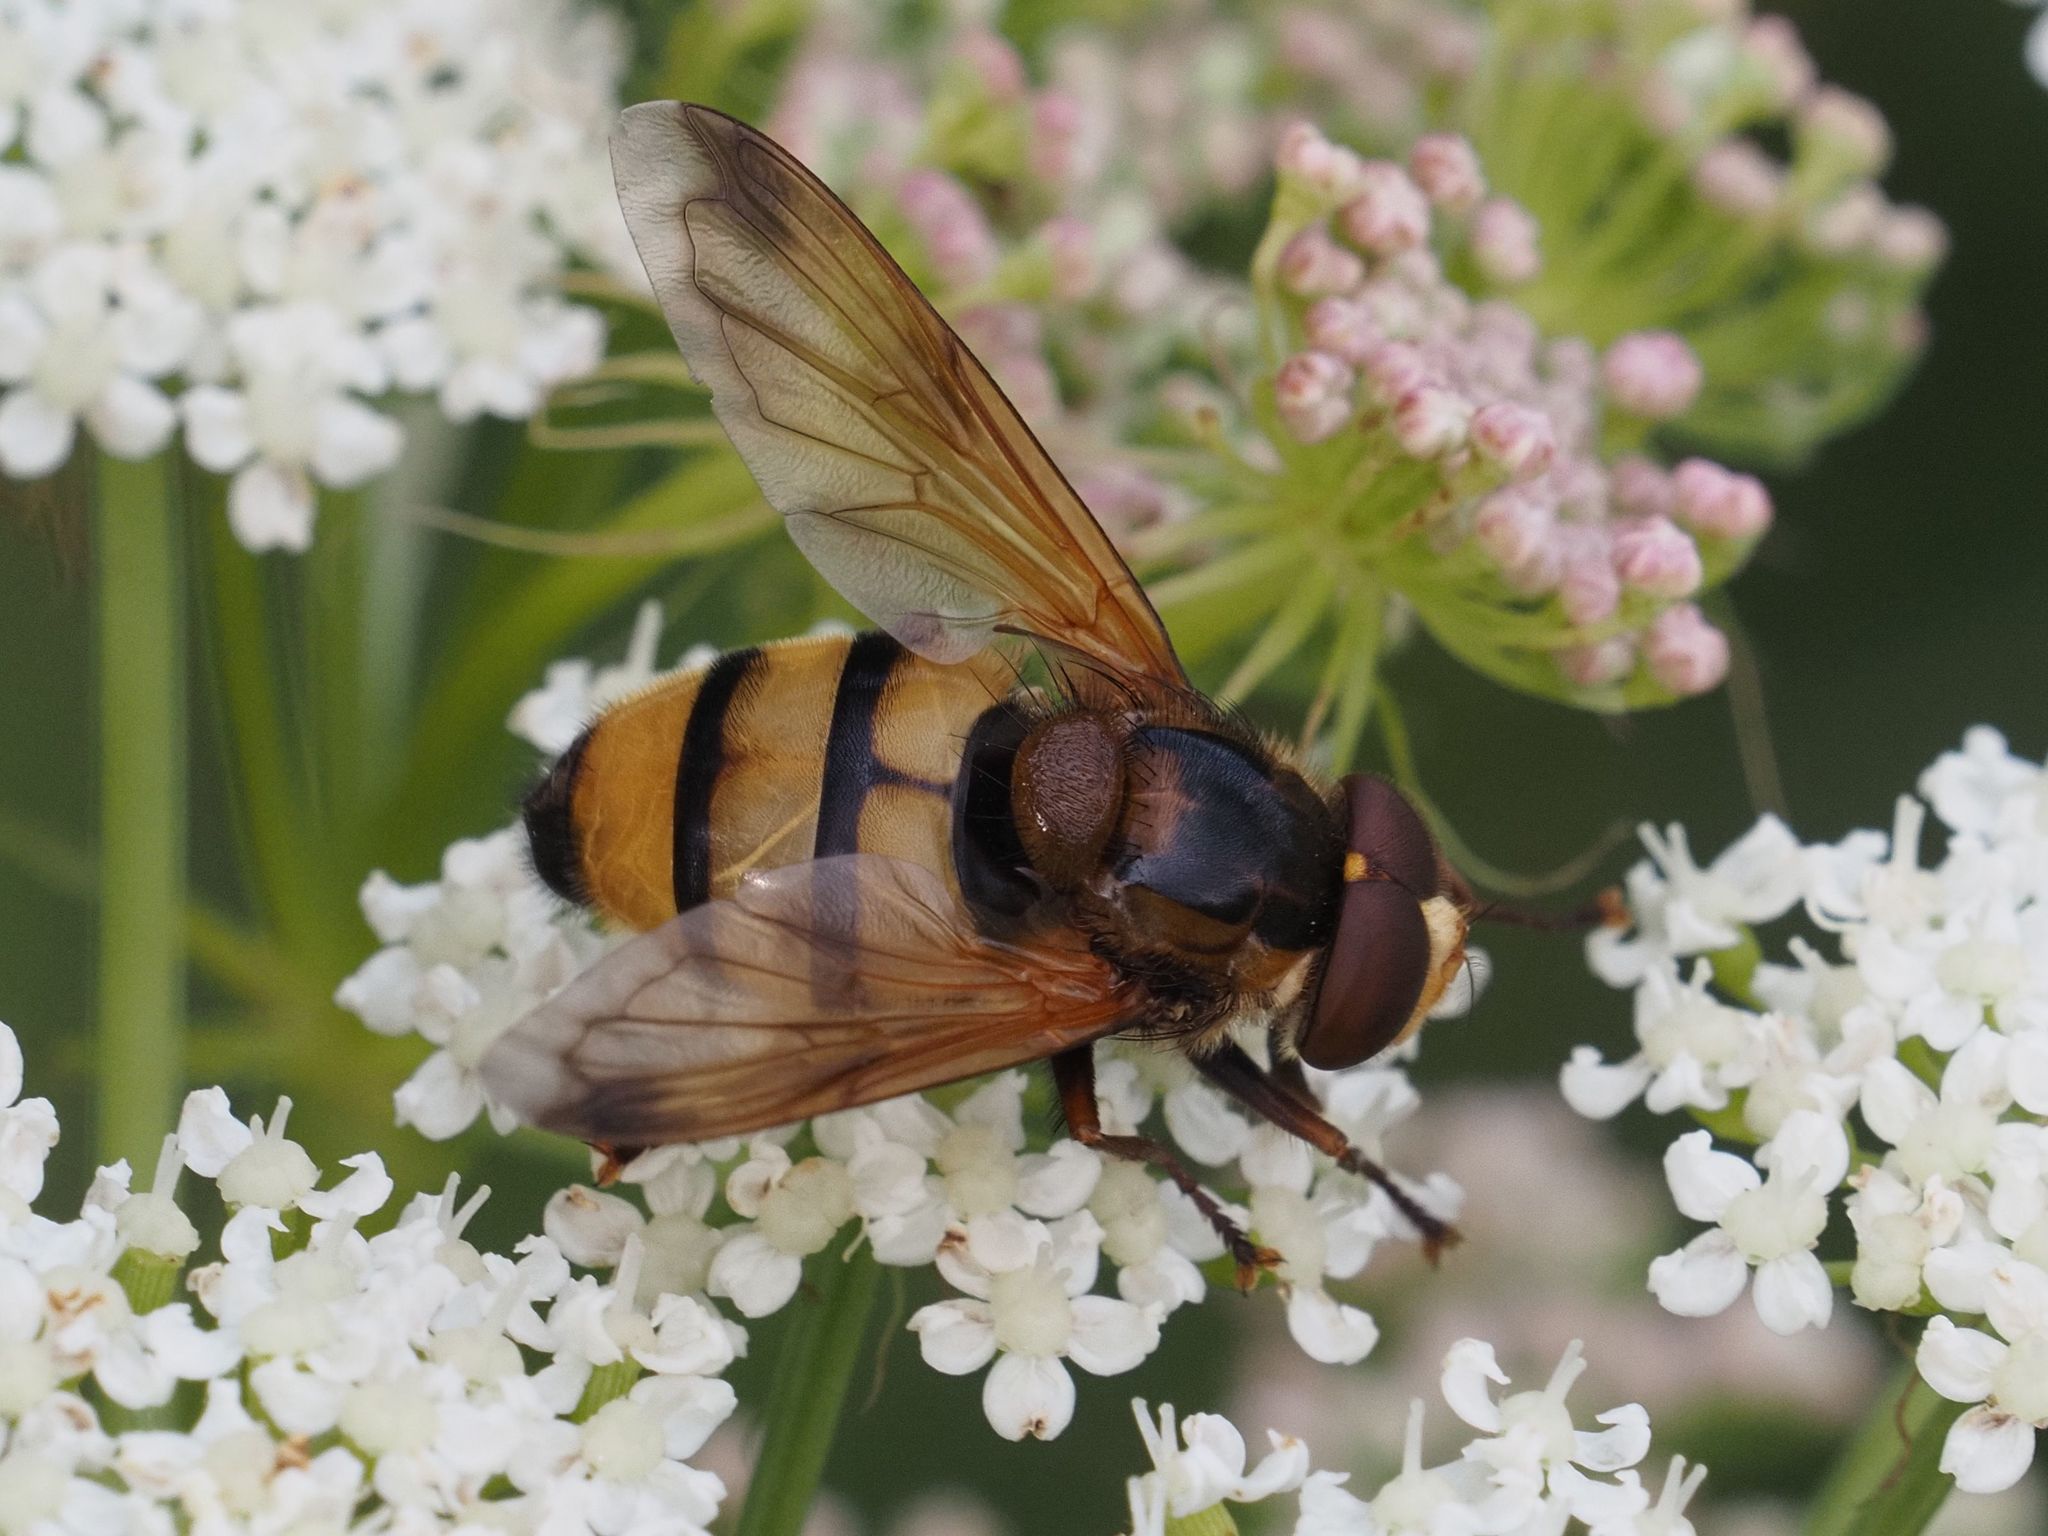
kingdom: Animalia
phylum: Arthropoda
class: Insecta
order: Diptera
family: Syrphidae
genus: Volucella
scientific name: Volucella inanis
